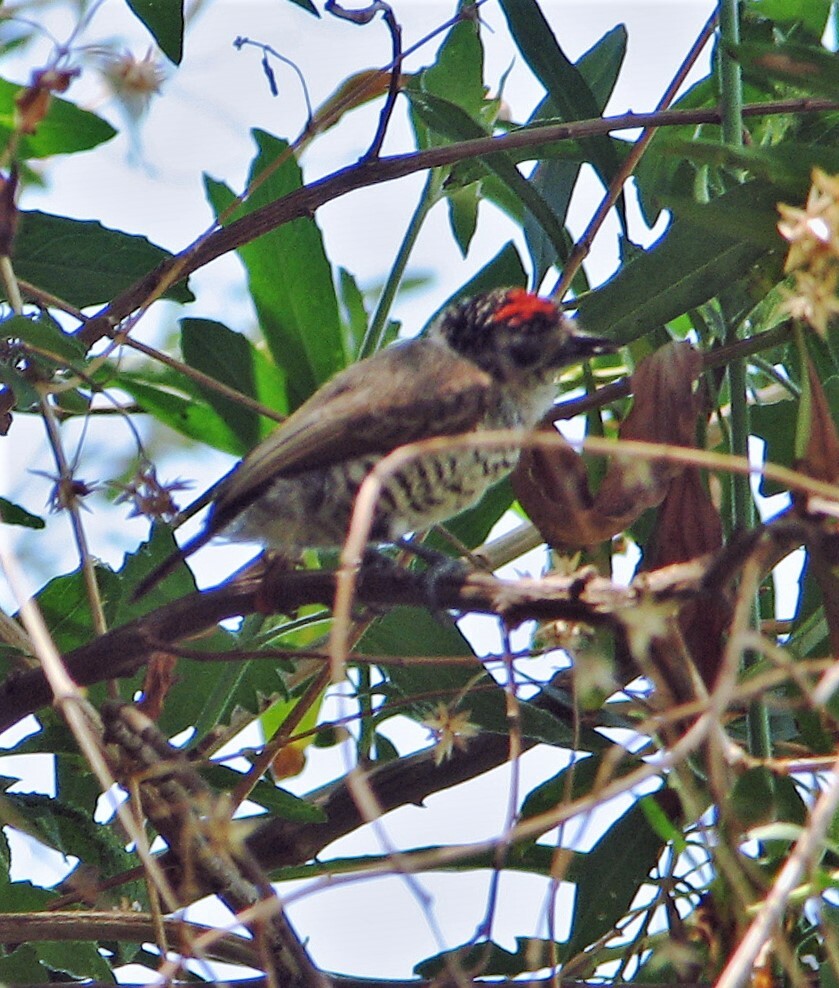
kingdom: Animalia
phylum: Chordata
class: Aves
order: Piciformes
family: Picidae
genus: Picumnus
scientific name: Picumnus cirratus
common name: White-barred piculet
